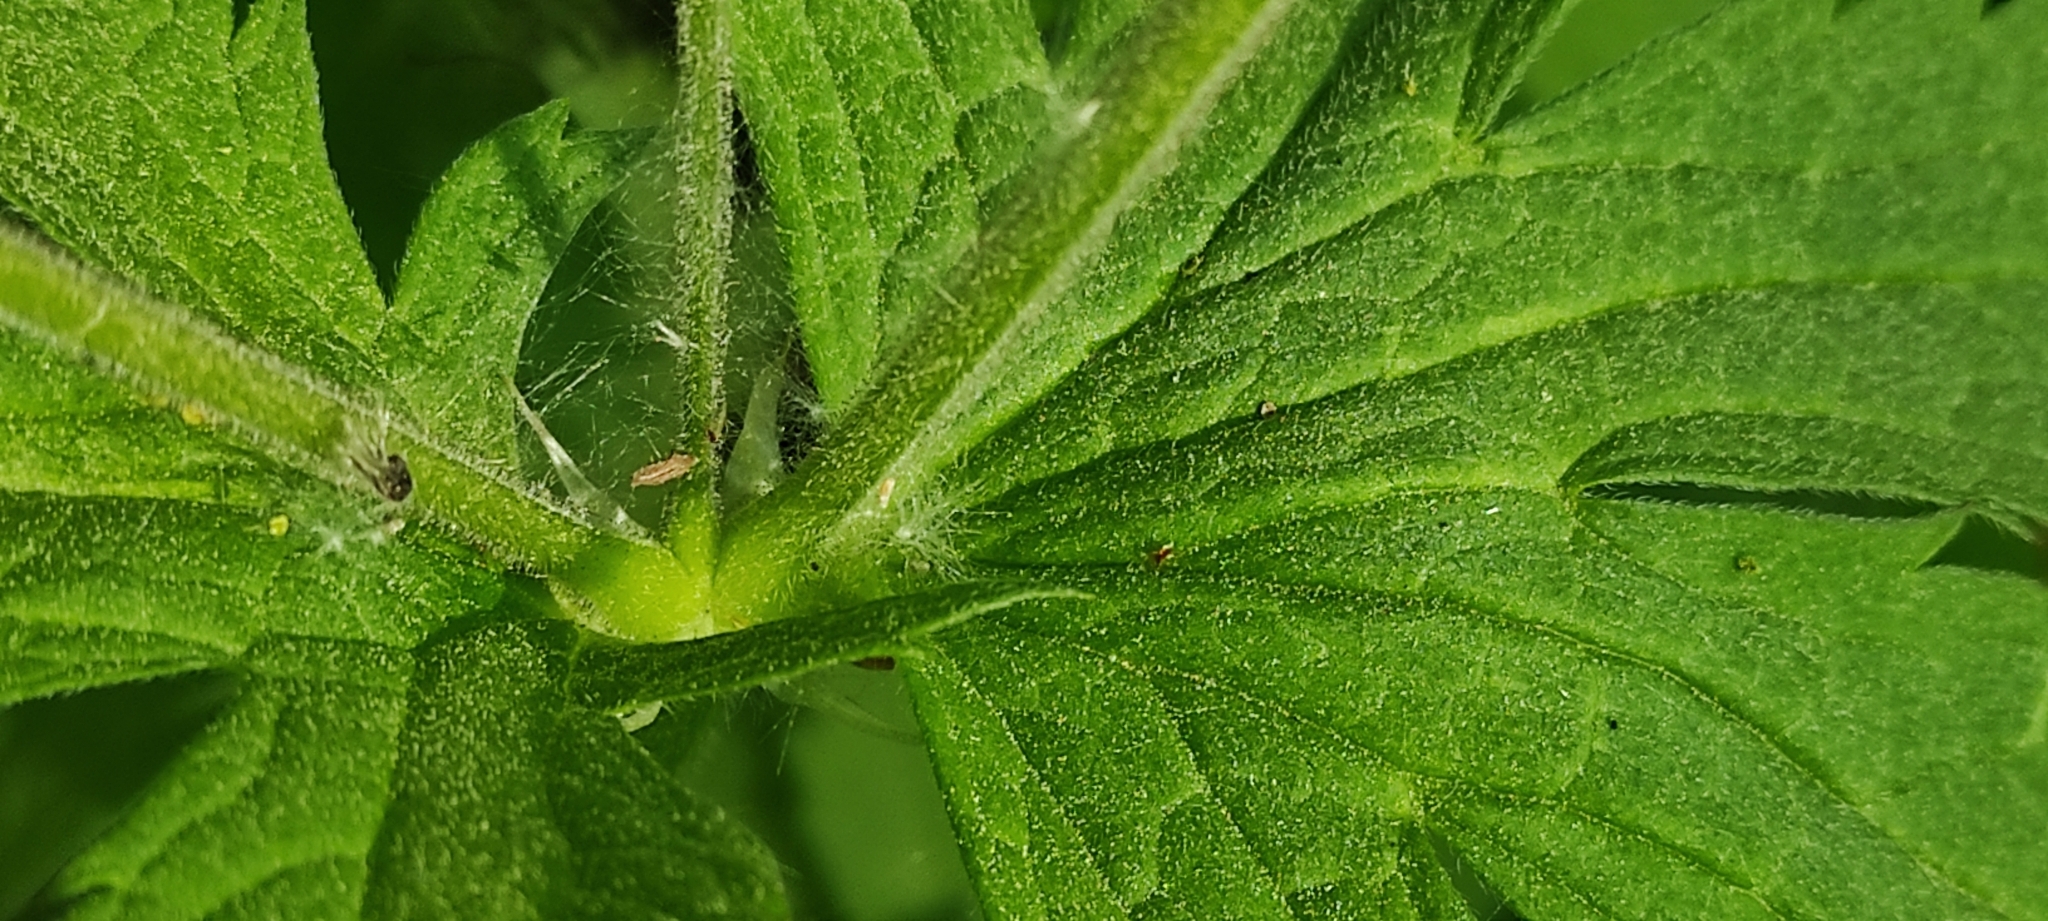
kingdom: Plantae
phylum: Tracheophyta
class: Magnoliopsida
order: Geraniales
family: Geraniaceae
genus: Geranium
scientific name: Geranium sylvaticum
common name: Wood crane's-bill
